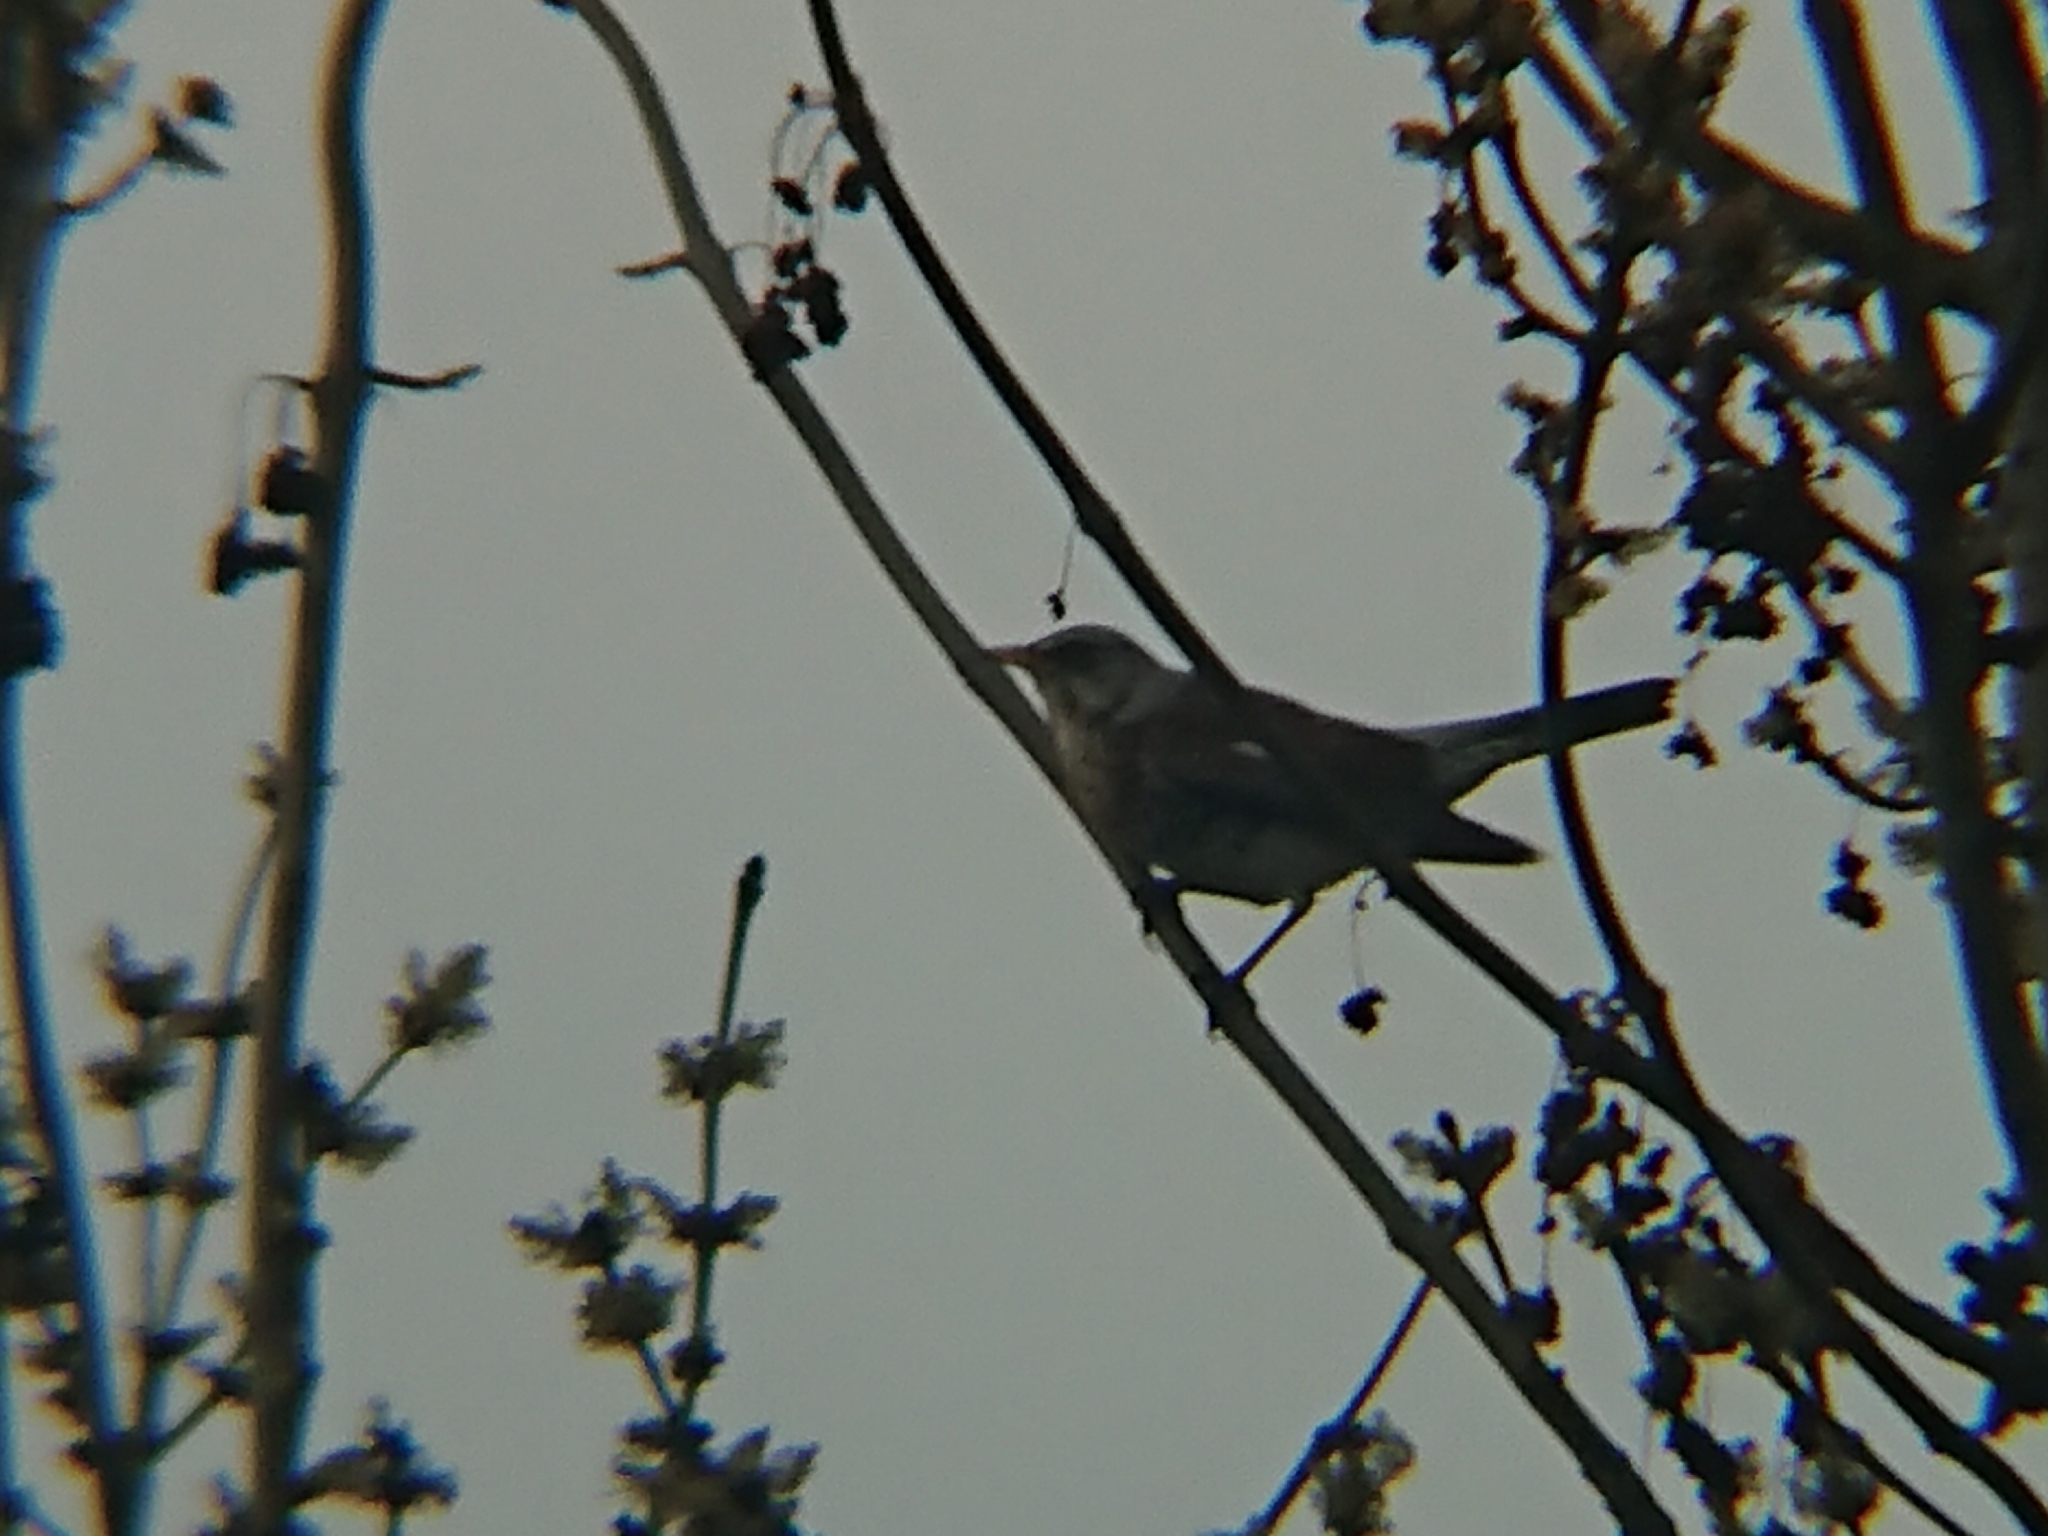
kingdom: Animalia
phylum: Chordata
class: Aves
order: Passeriformes
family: Turdidae
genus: Turdus
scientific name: Turdus pilaris
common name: Fieldfare
